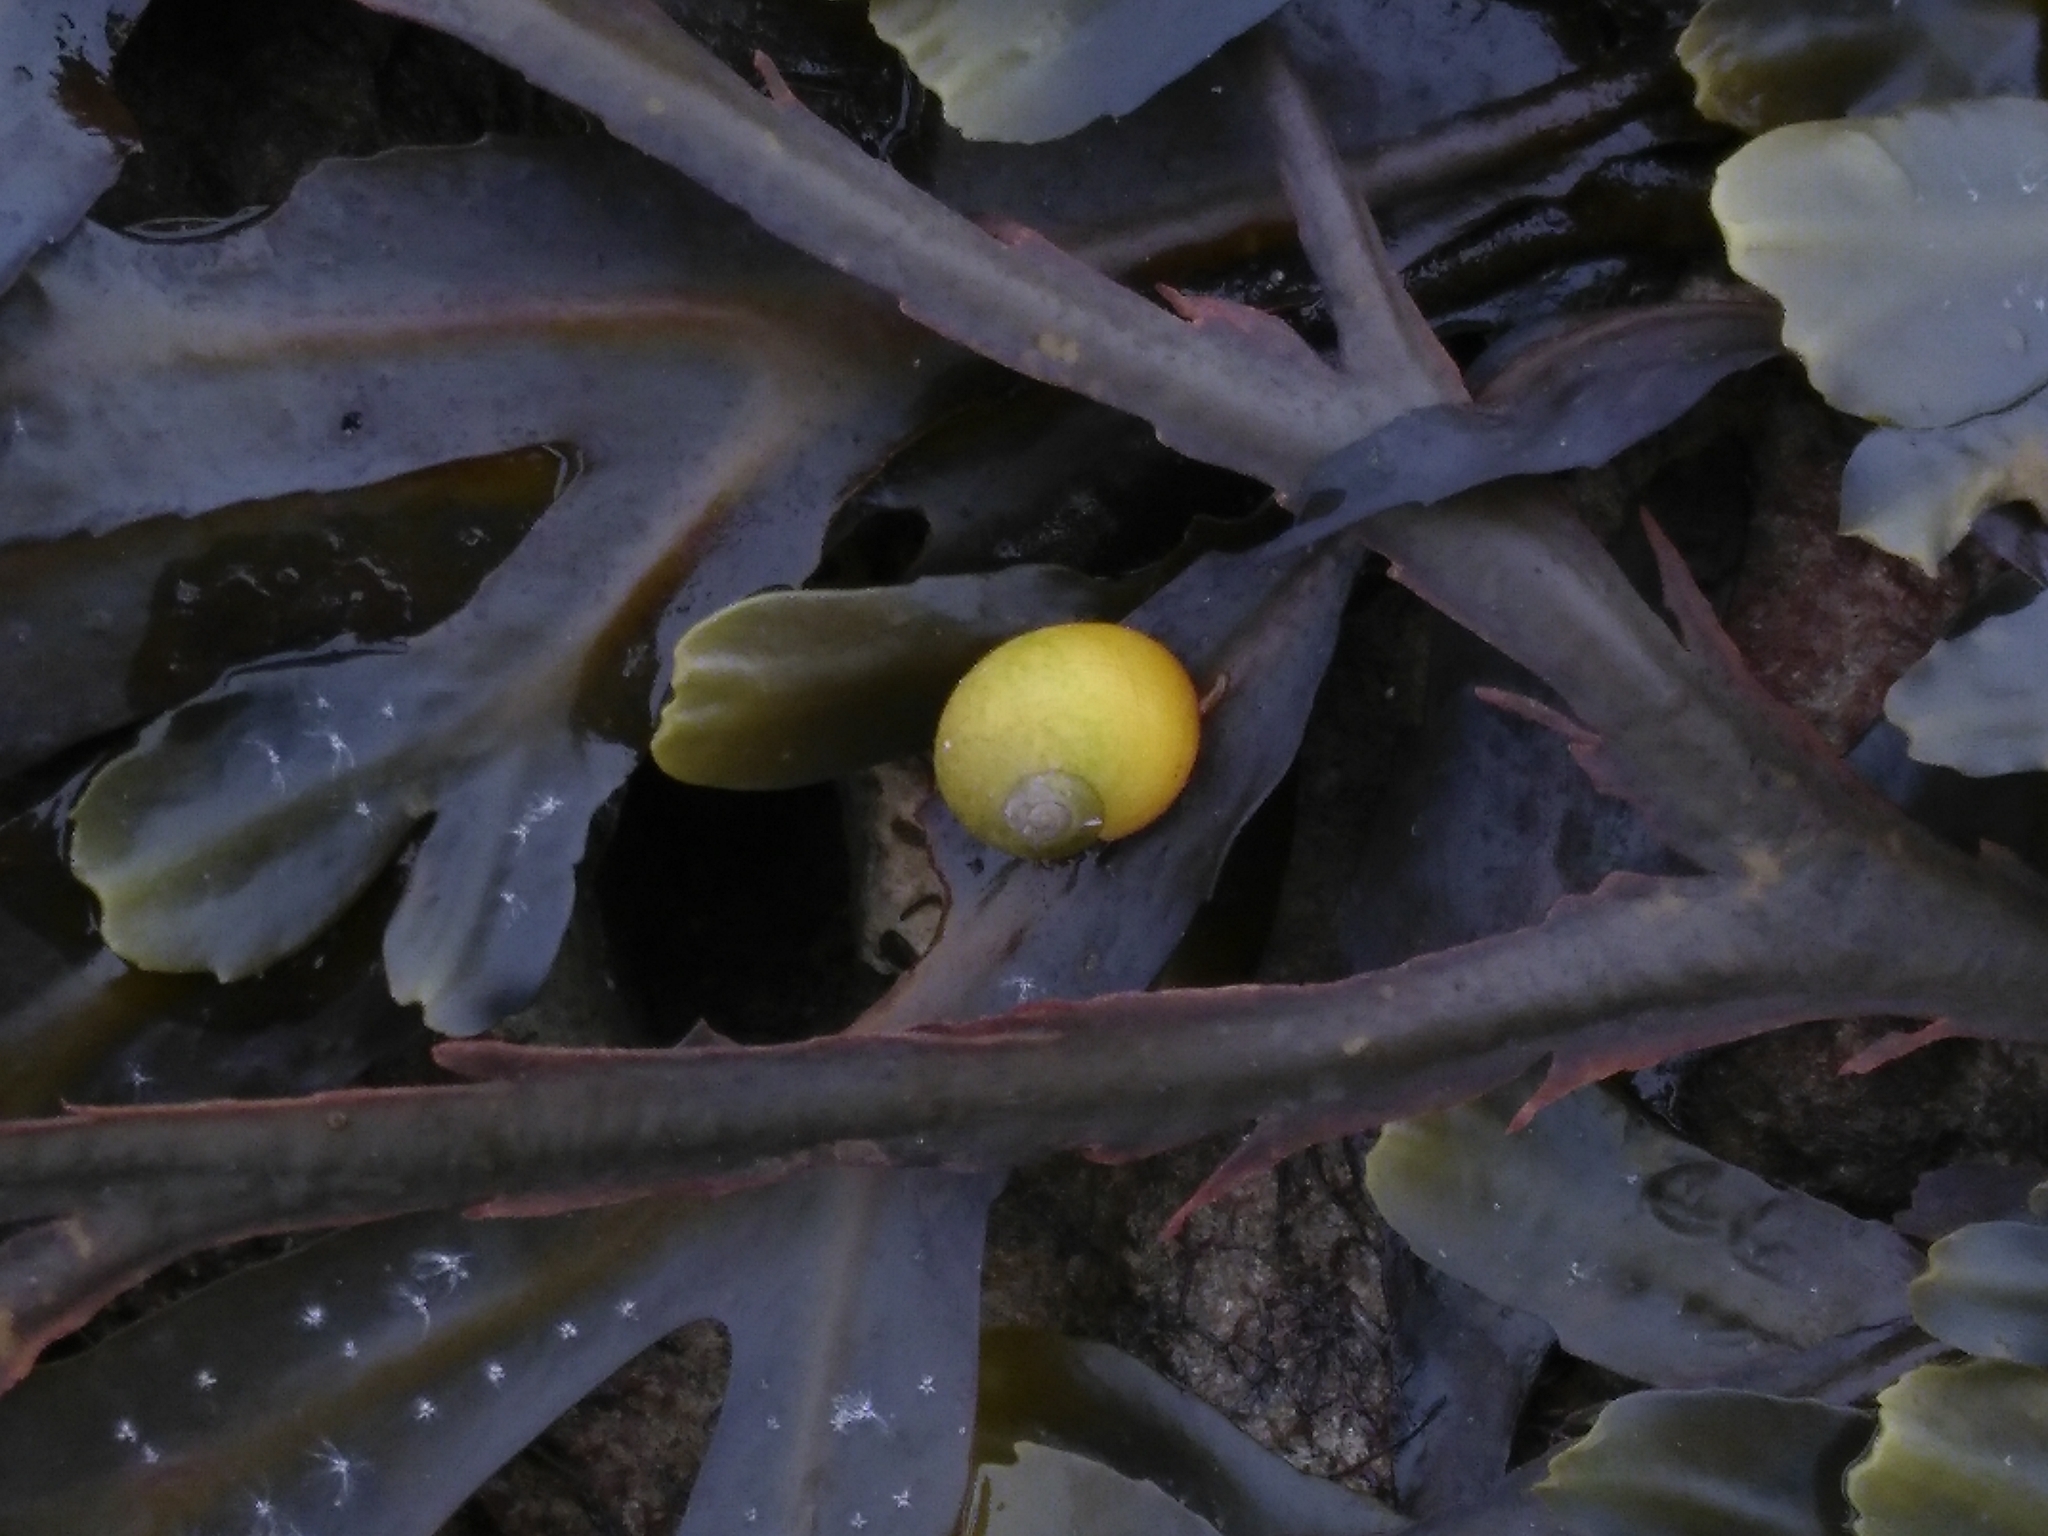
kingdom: Animalia
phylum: Mollusca
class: Gastropoda
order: Littorinimorpha
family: Littorinidae
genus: Littorina
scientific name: Littorina
